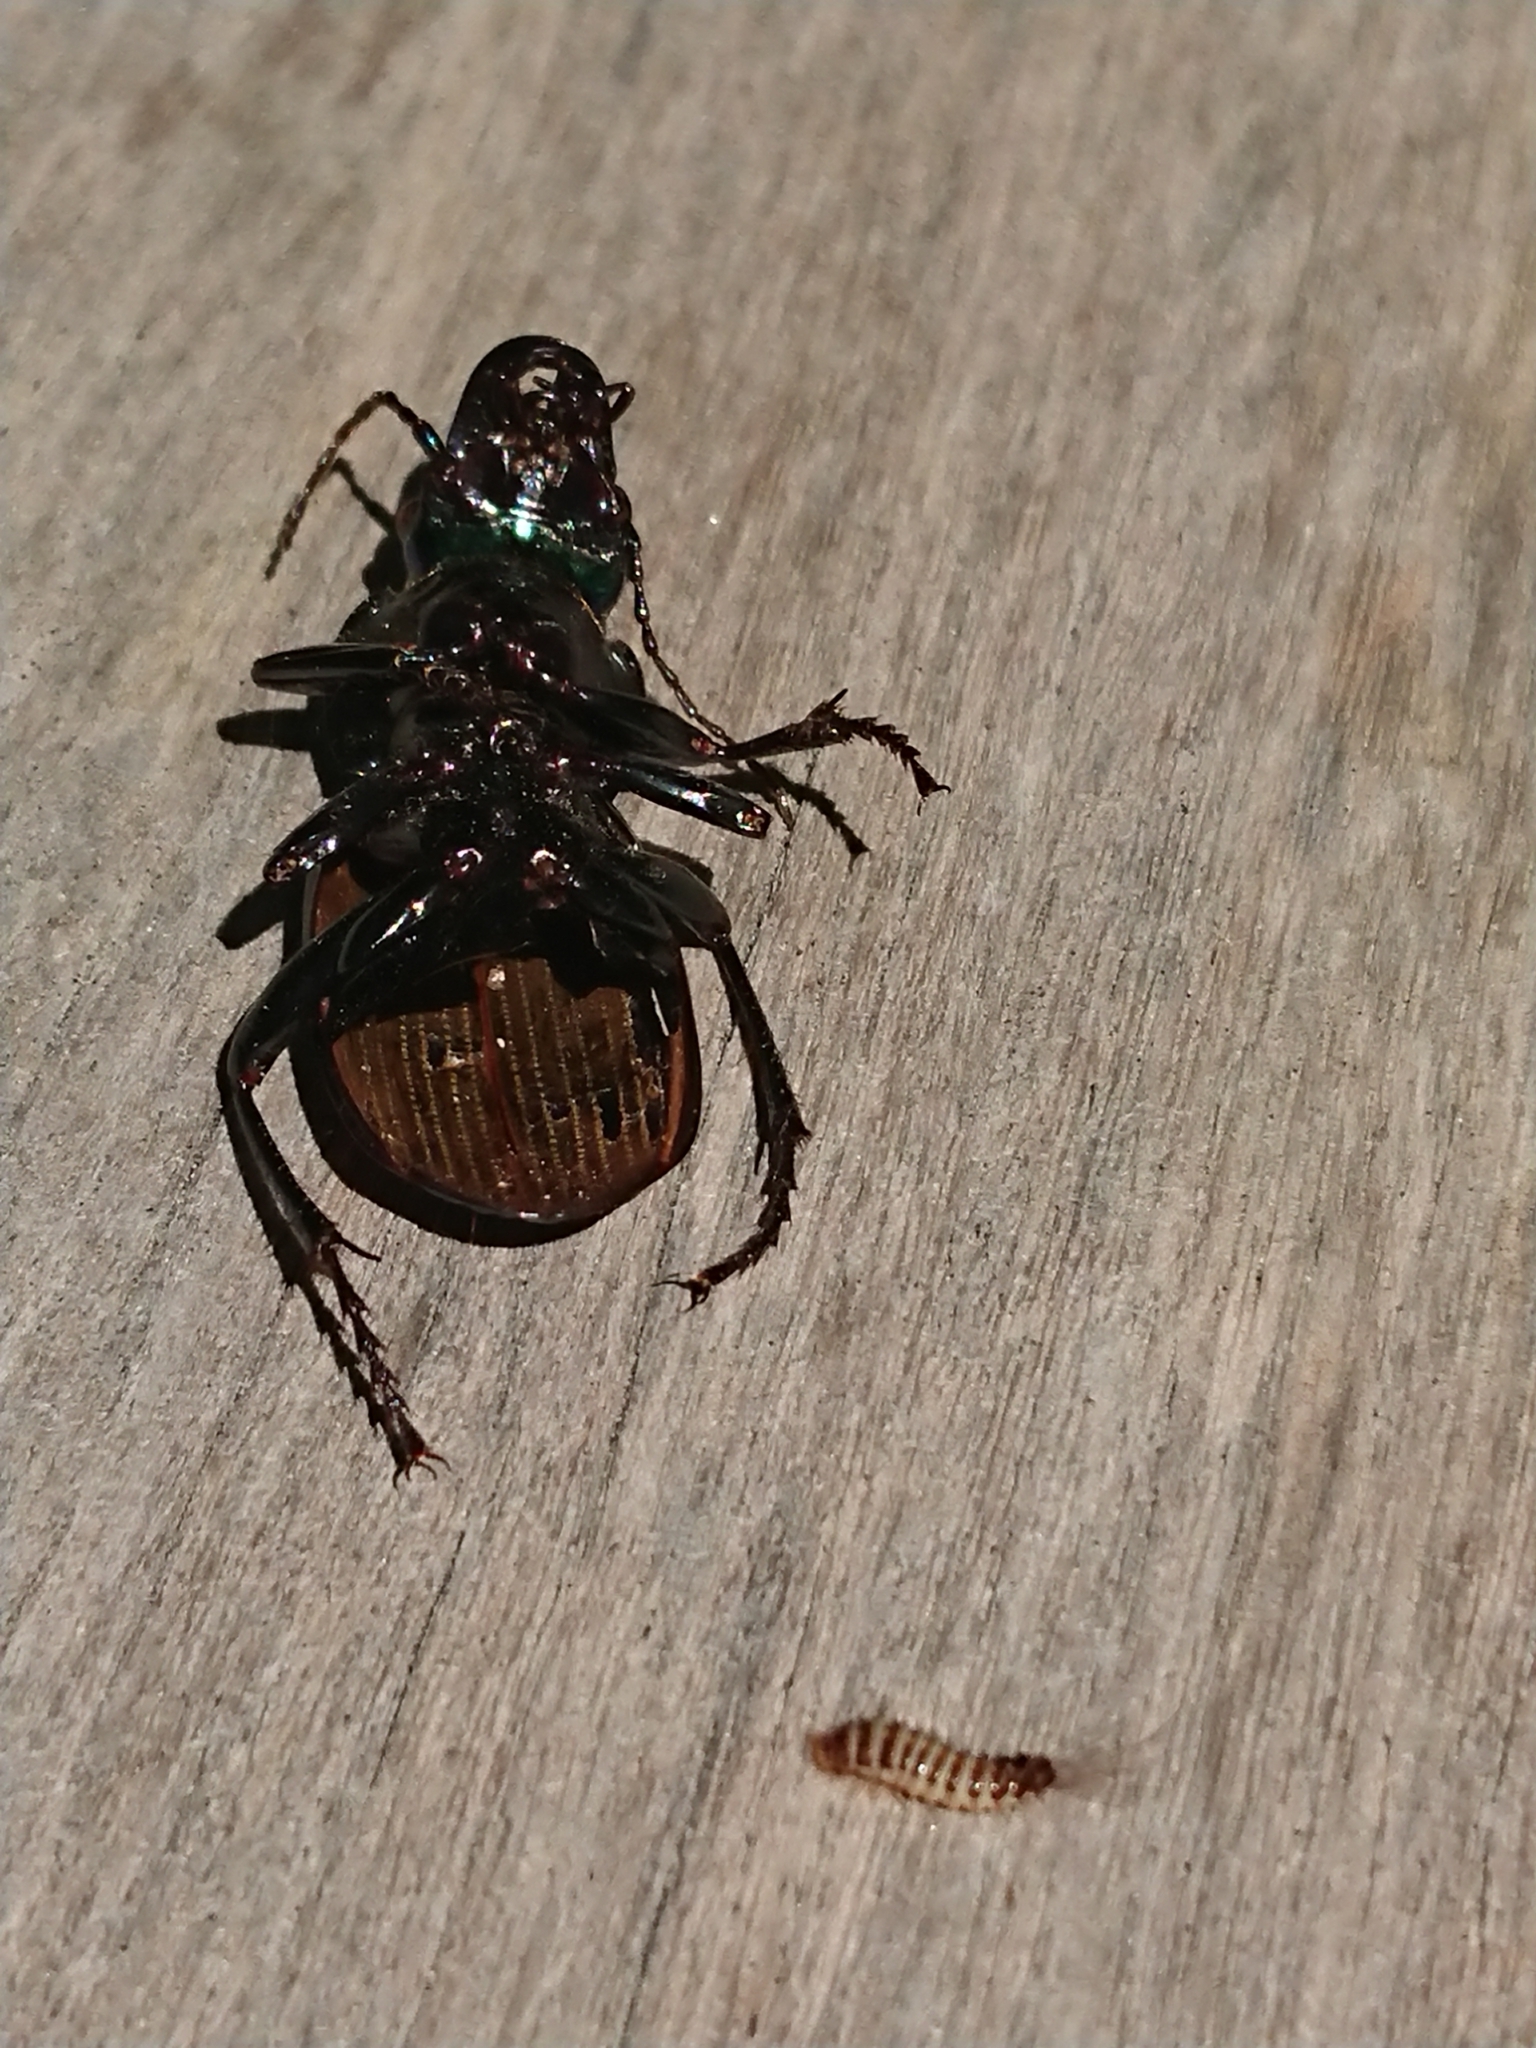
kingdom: Animalia
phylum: Arthropoda
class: Insecta
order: Coleoptera
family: Dermestidae
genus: Anthrenocerus
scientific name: Anthrenocerus australis
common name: Australian carpet beetle
